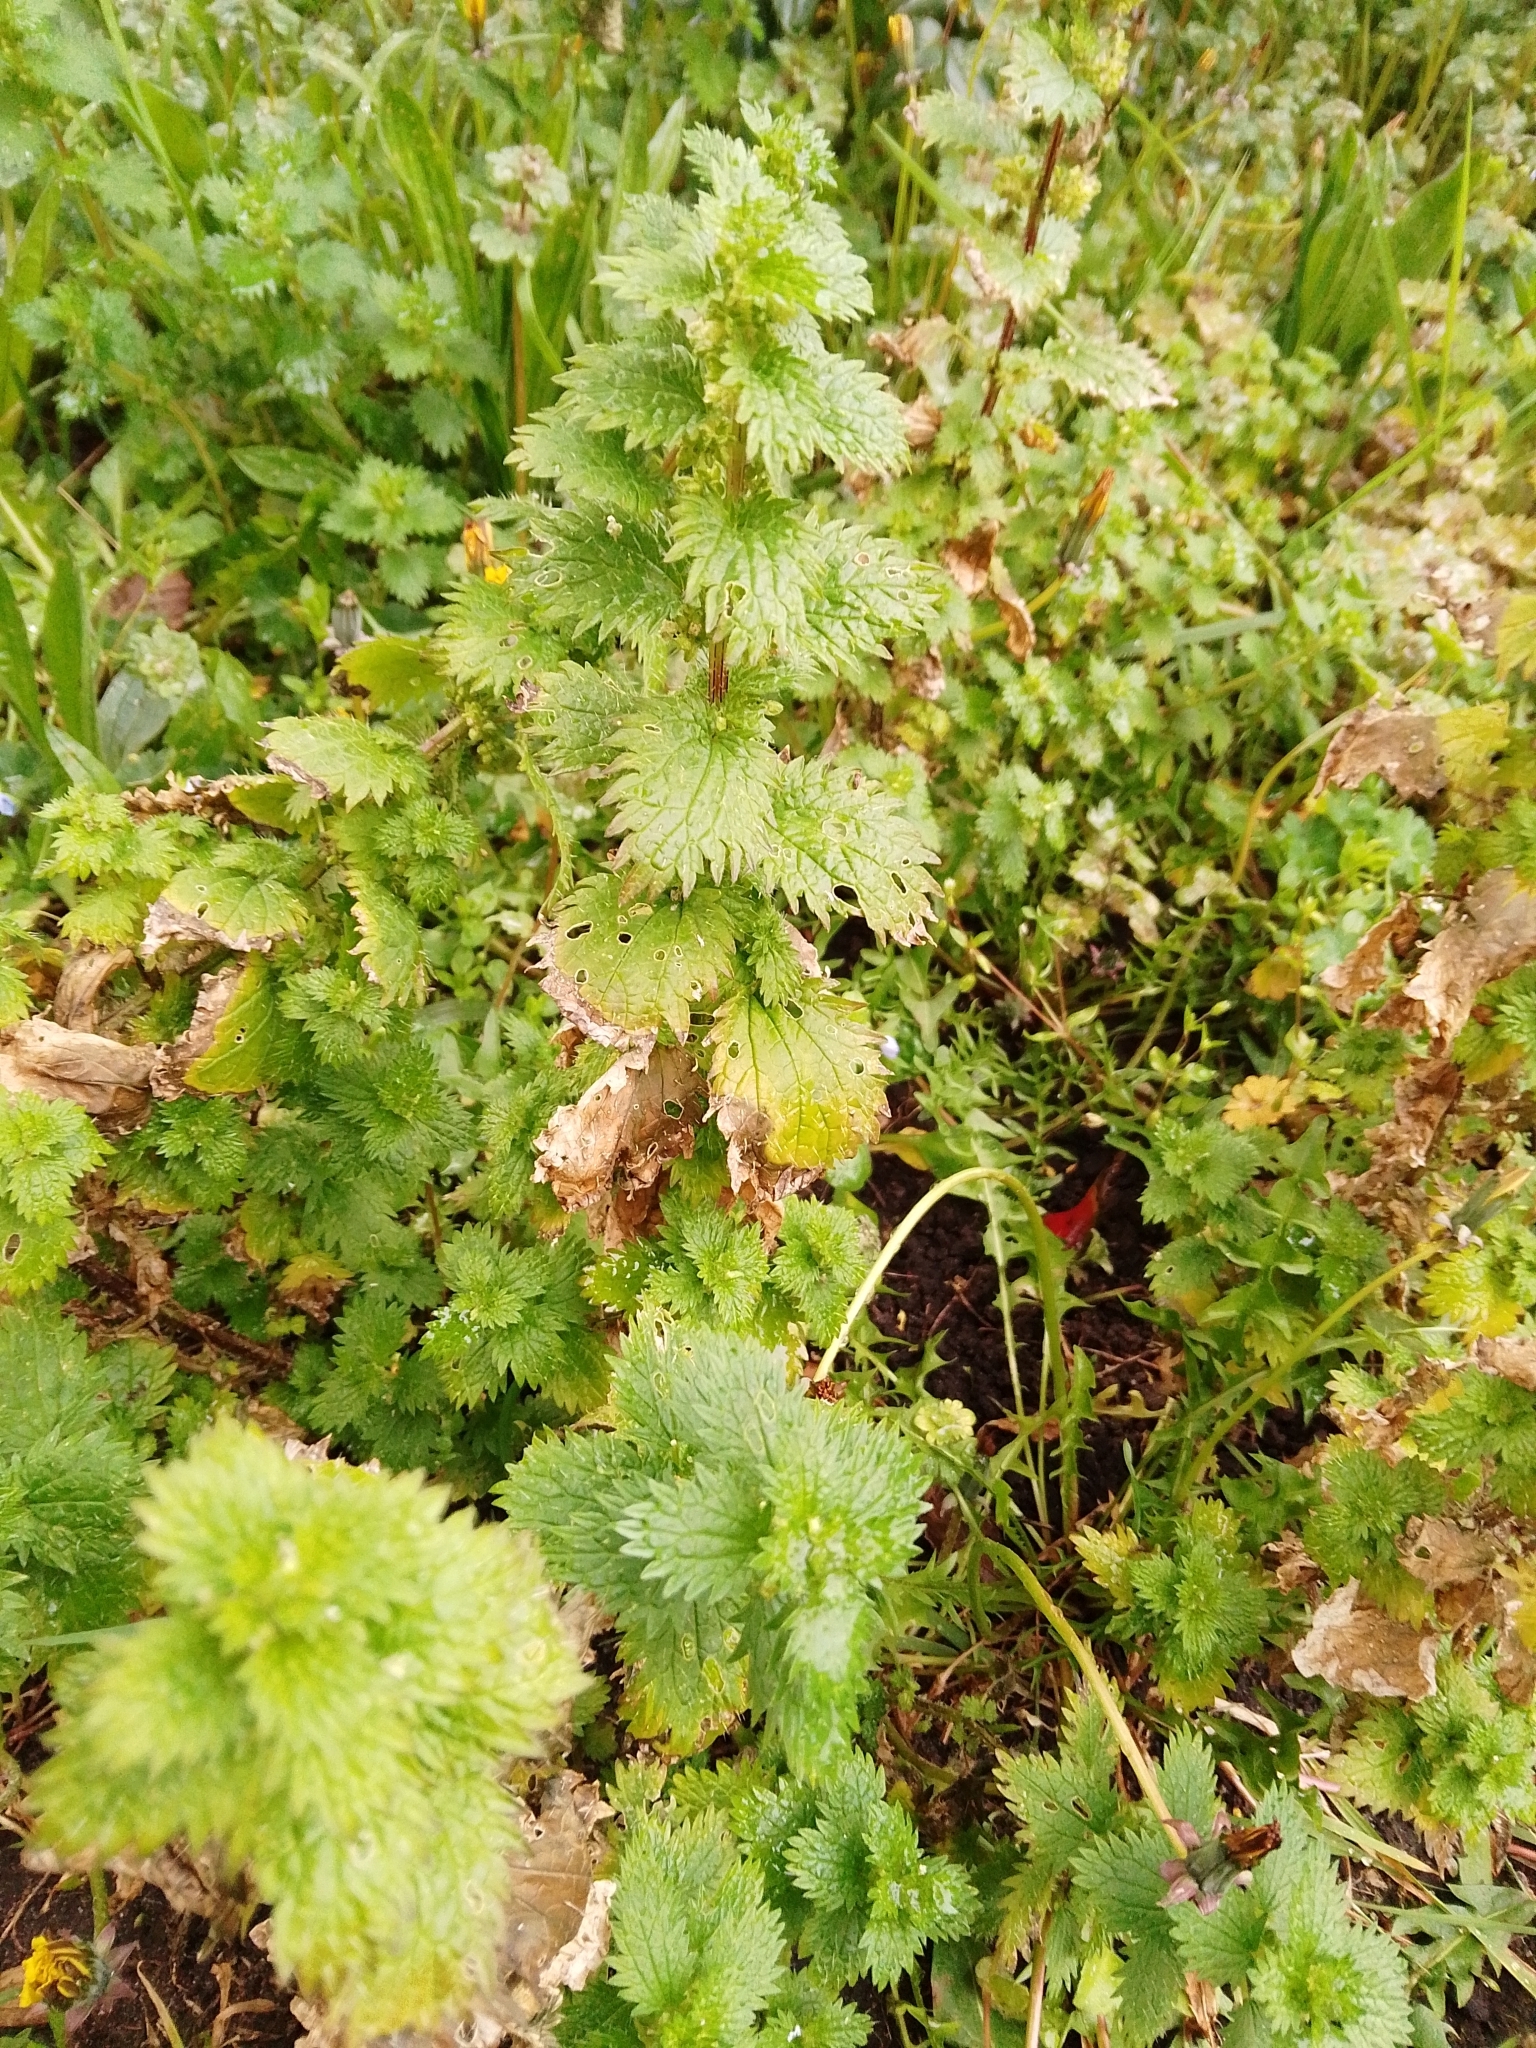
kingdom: Plantae
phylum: Tracheophyta
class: Magnoliopsida
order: Rosales
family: Urticaceae
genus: Urtica
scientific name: Urtica urens
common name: Dwarf nettle
